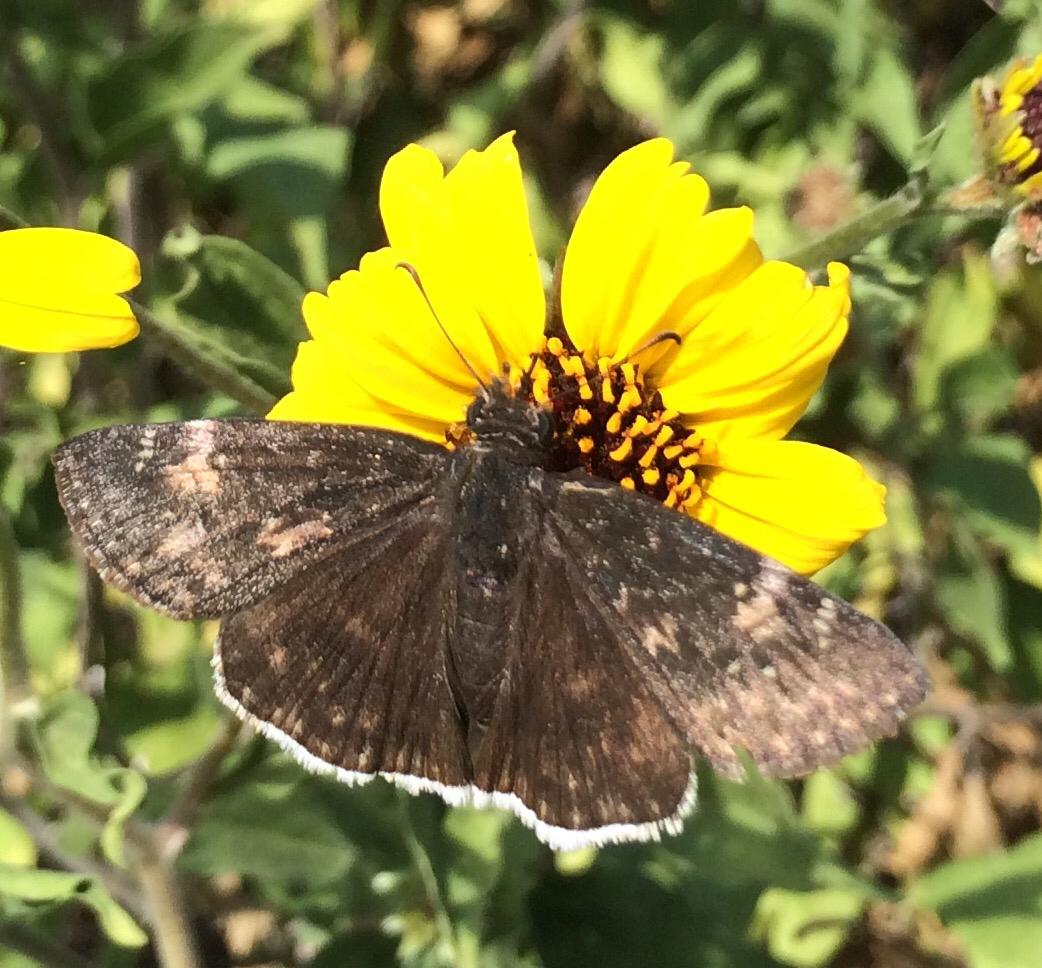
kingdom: Animalia
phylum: Arthropoda
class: Insecta
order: Lepidoptera
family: Hesperiidae
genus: Erynnis
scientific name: Erynnis funeralis
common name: Funereal duskywing
